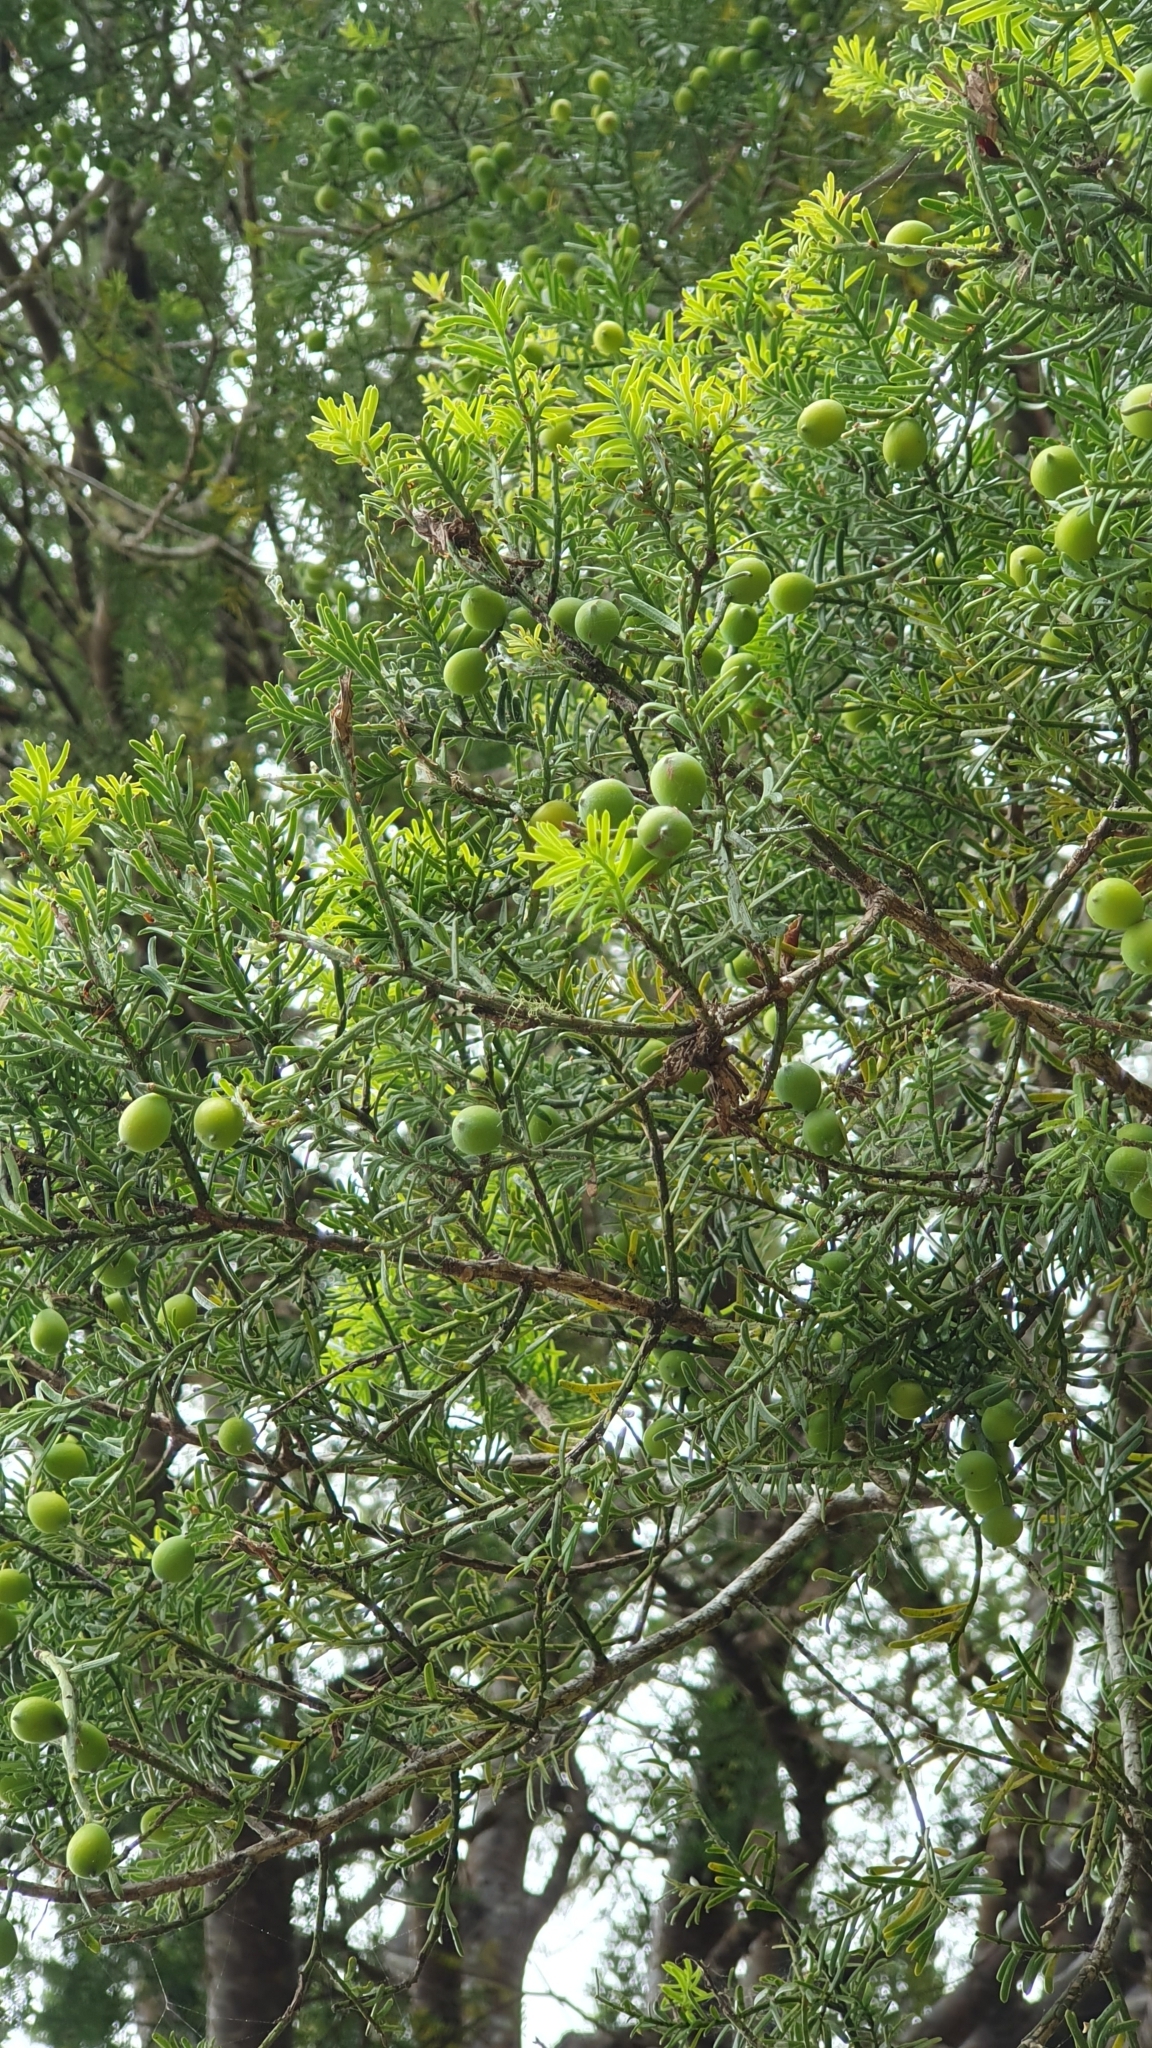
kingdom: Plantae
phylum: Tracheophyta
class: Pinopsida
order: Pinales
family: Podocarpaceae
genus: Prumnopitys
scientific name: Prumnopitys taxifolia
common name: Matai
